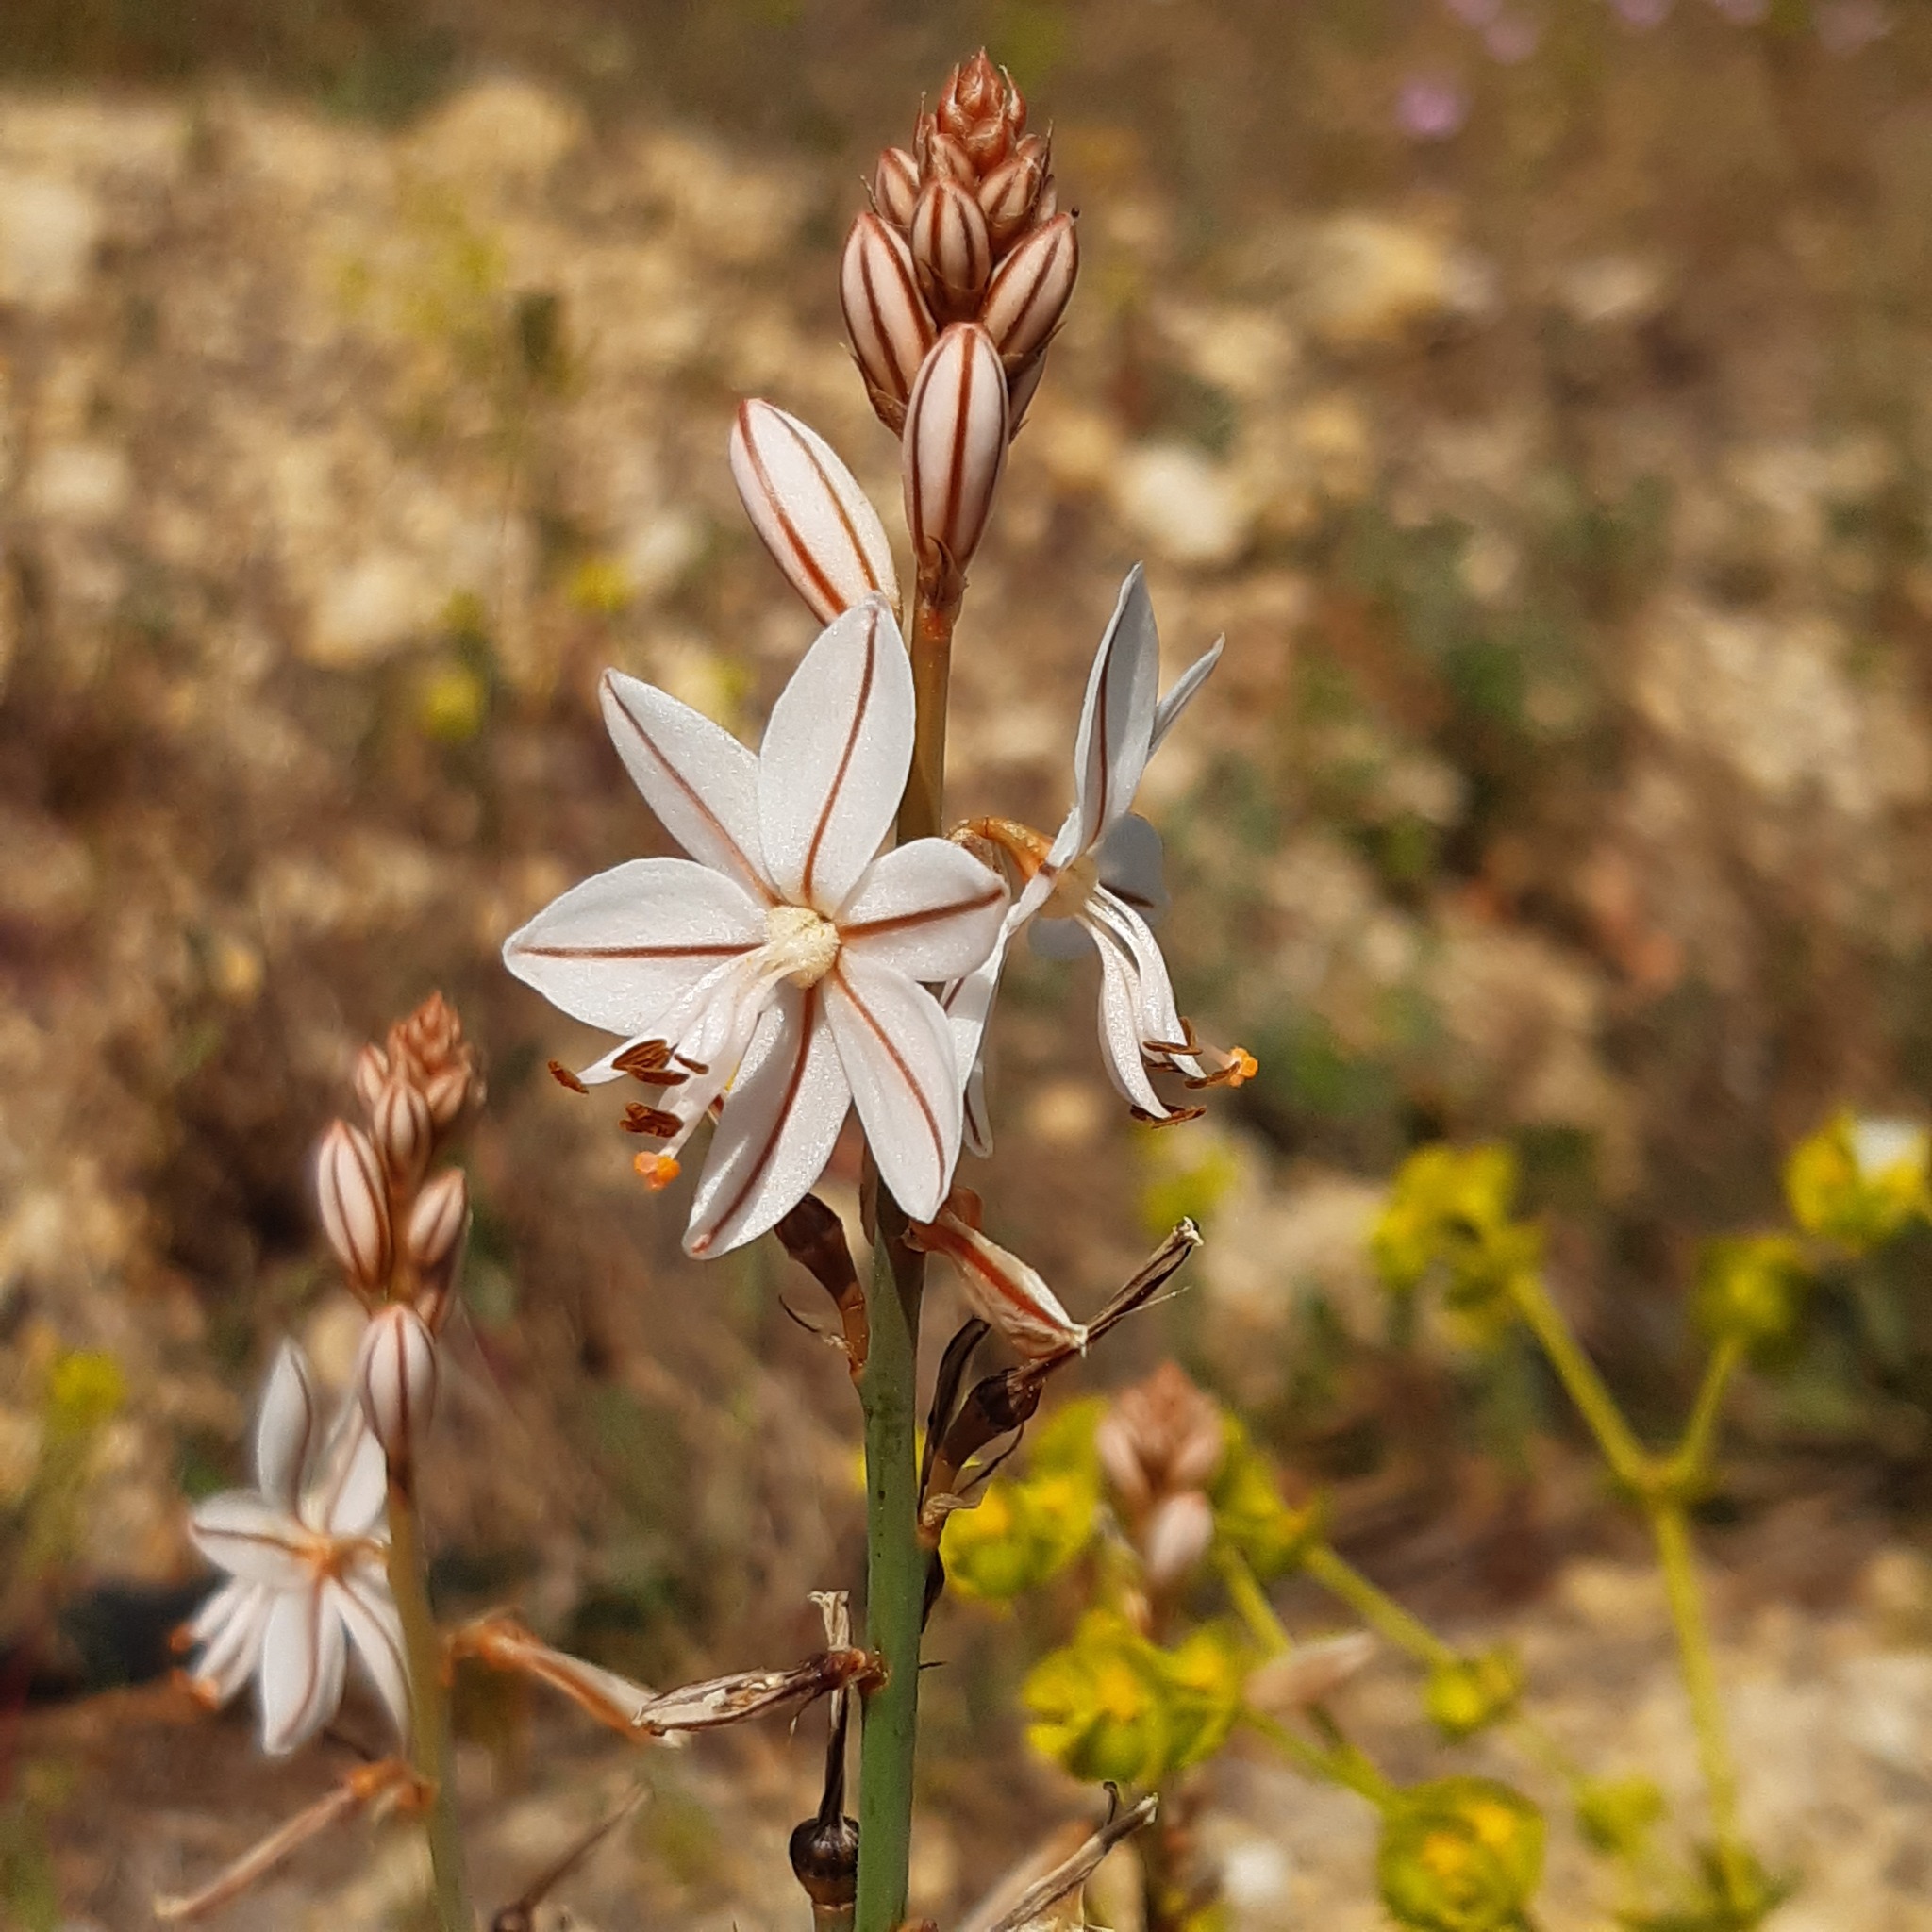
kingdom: Plantae
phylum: Tracheophyta
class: Liliopsida
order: Asparagales
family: Asphodelaceae
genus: Asphodelus
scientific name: Asphodelus fistulosus
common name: Onionweed
